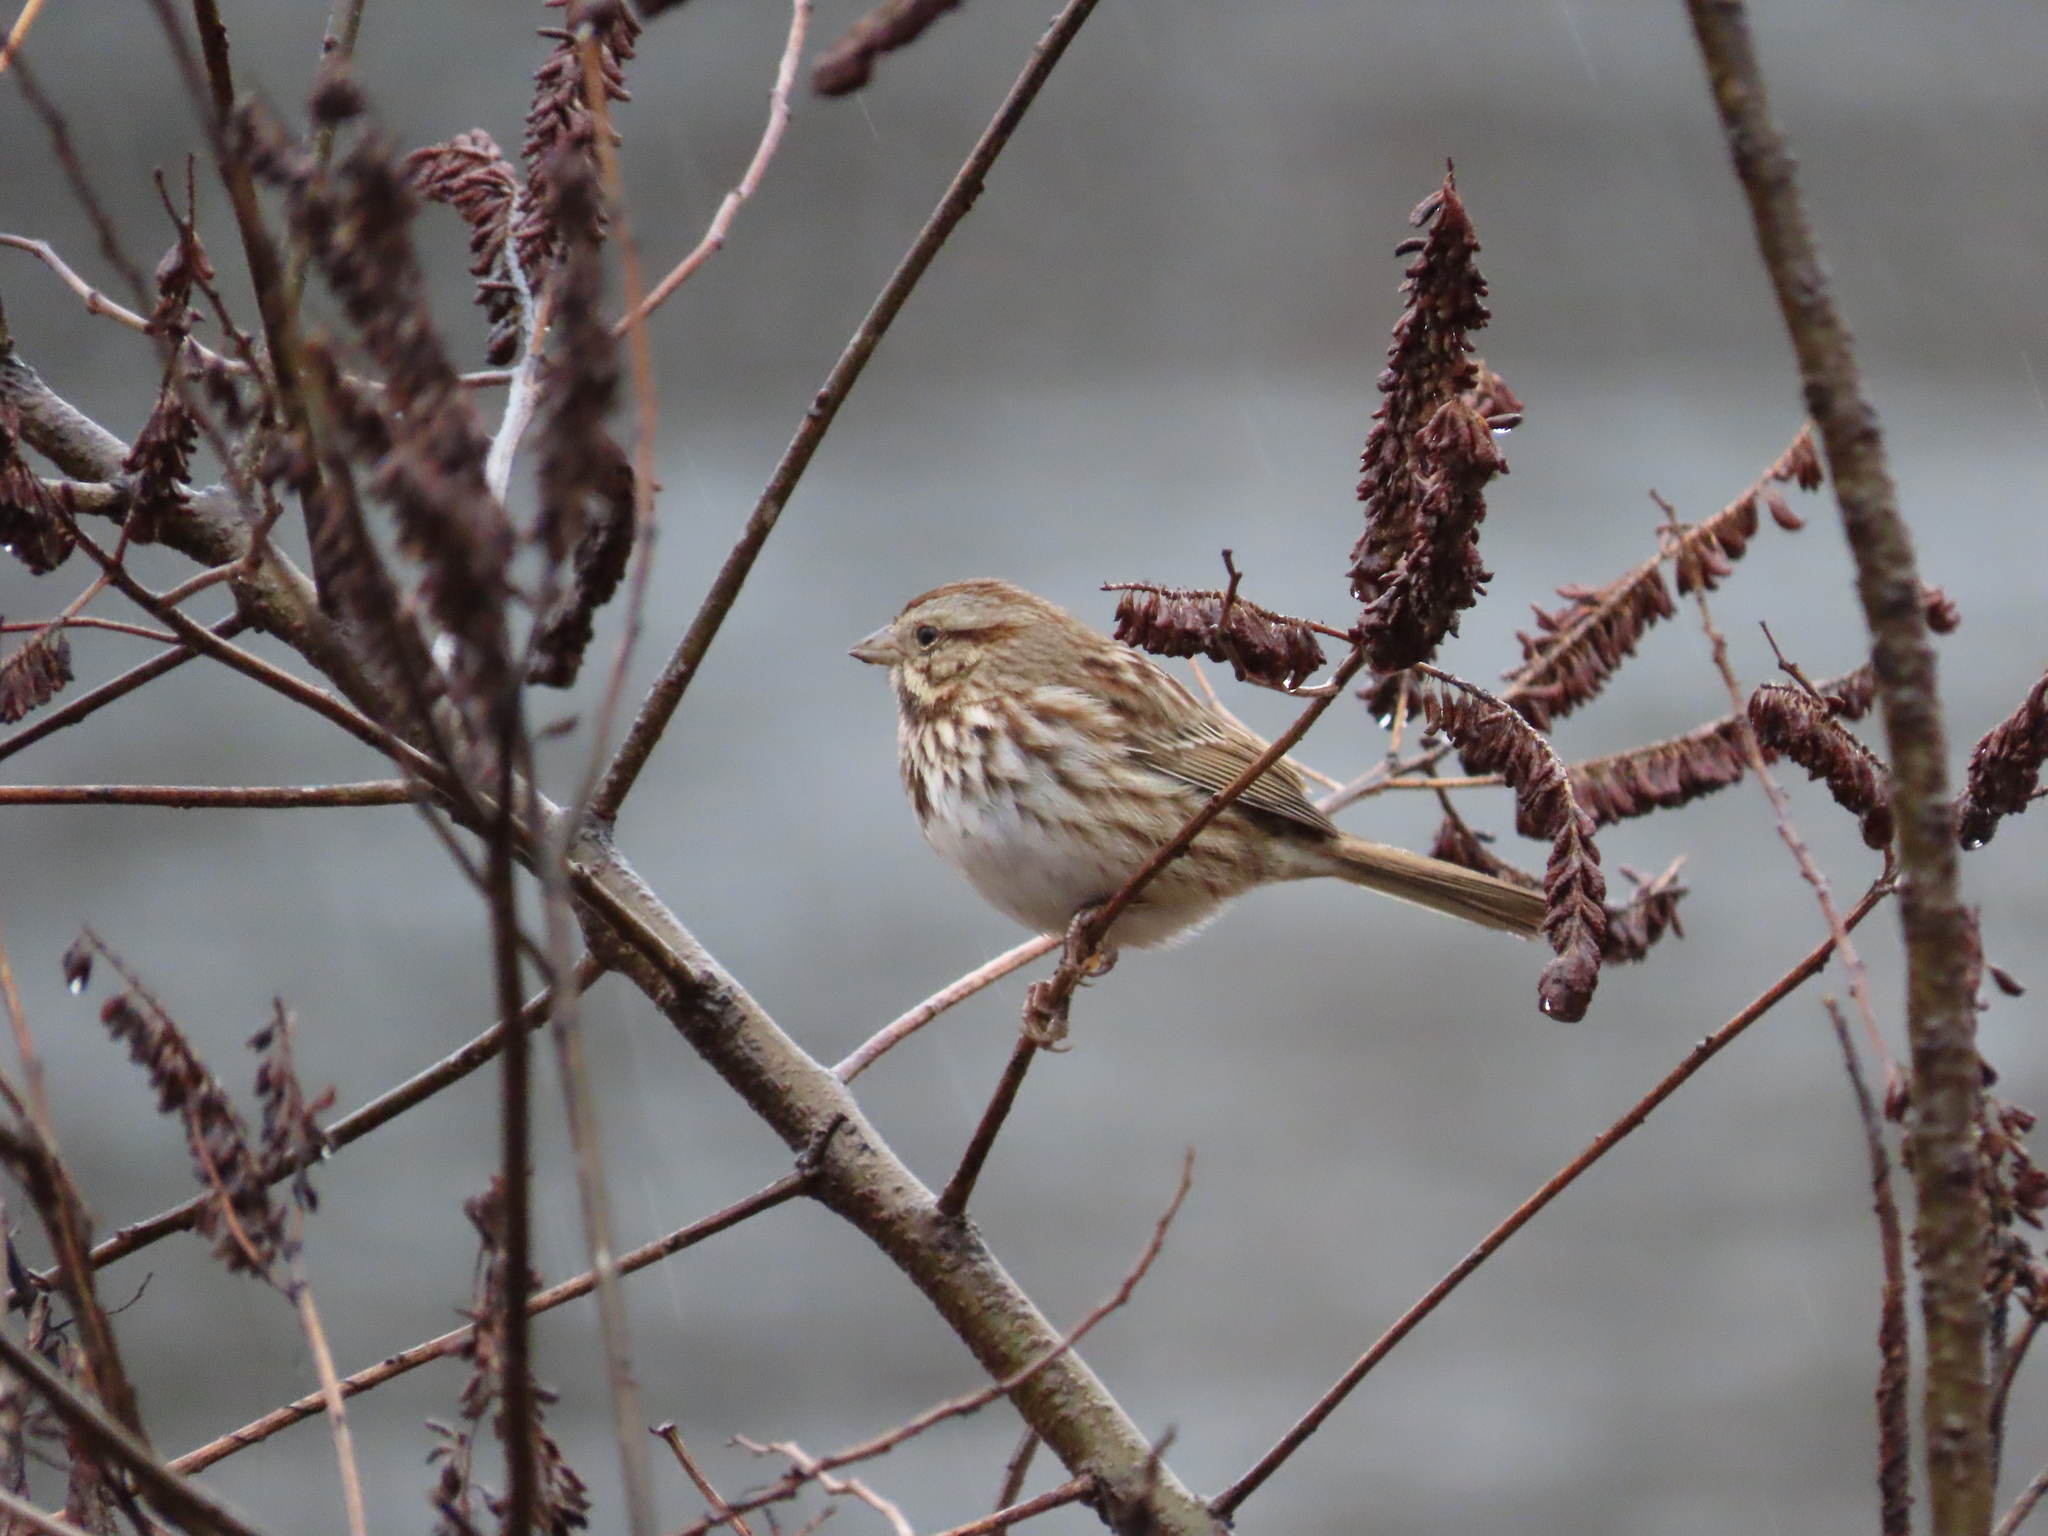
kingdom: Animalia
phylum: Chordata
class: Aves
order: Passeriformes
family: Passerellidae
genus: Melospiza
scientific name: Melospiza melodia
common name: Song sparrow
